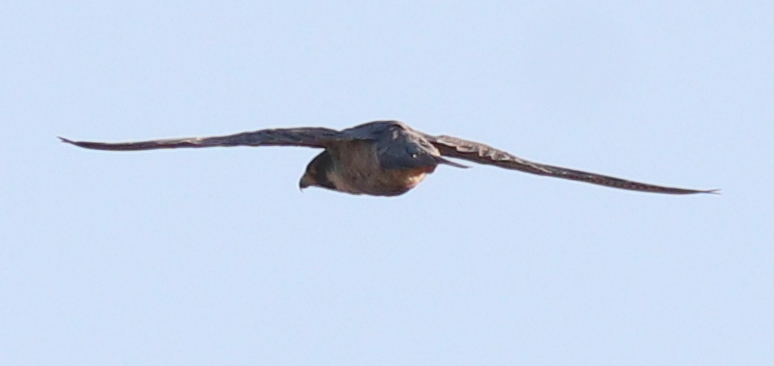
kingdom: Animalia
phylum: Chordata
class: Aves
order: Falconiformes
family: Falconidae
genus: Falco
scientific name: Falco peregrinus
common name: Peregrine falcon
